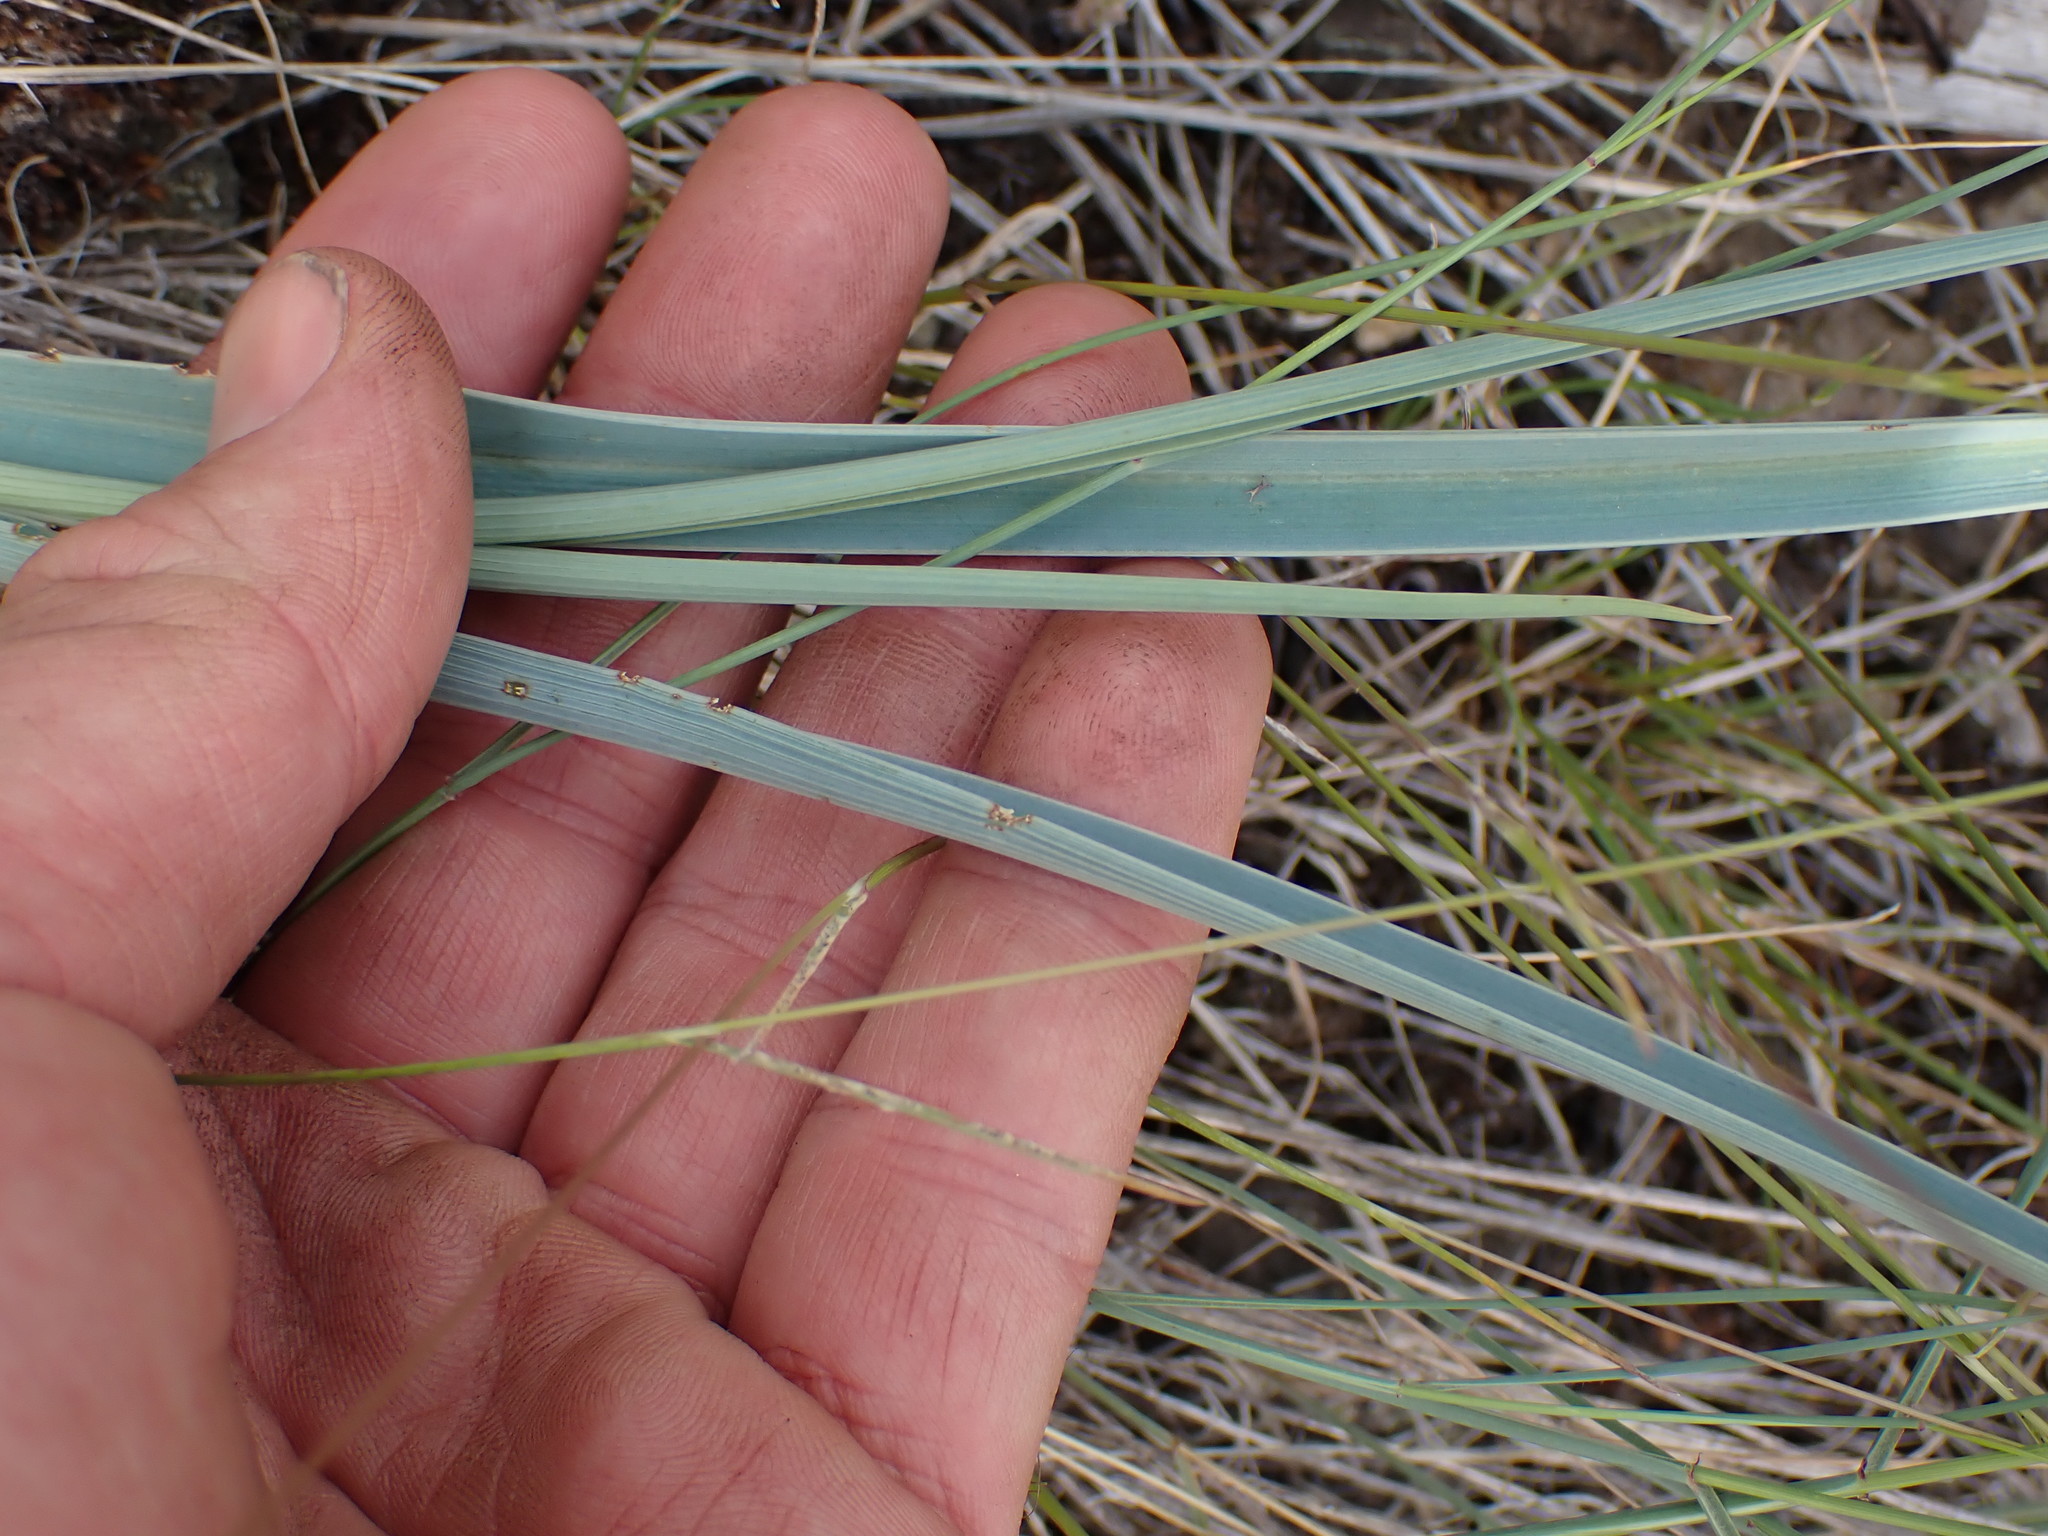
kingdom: Plantae
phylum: Tracheophyta
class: Liliopsida
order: Liliales
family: Liliaceae
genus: Calochortus
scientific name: Calochortus macrocarpus
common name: Green-band mariposa lily
